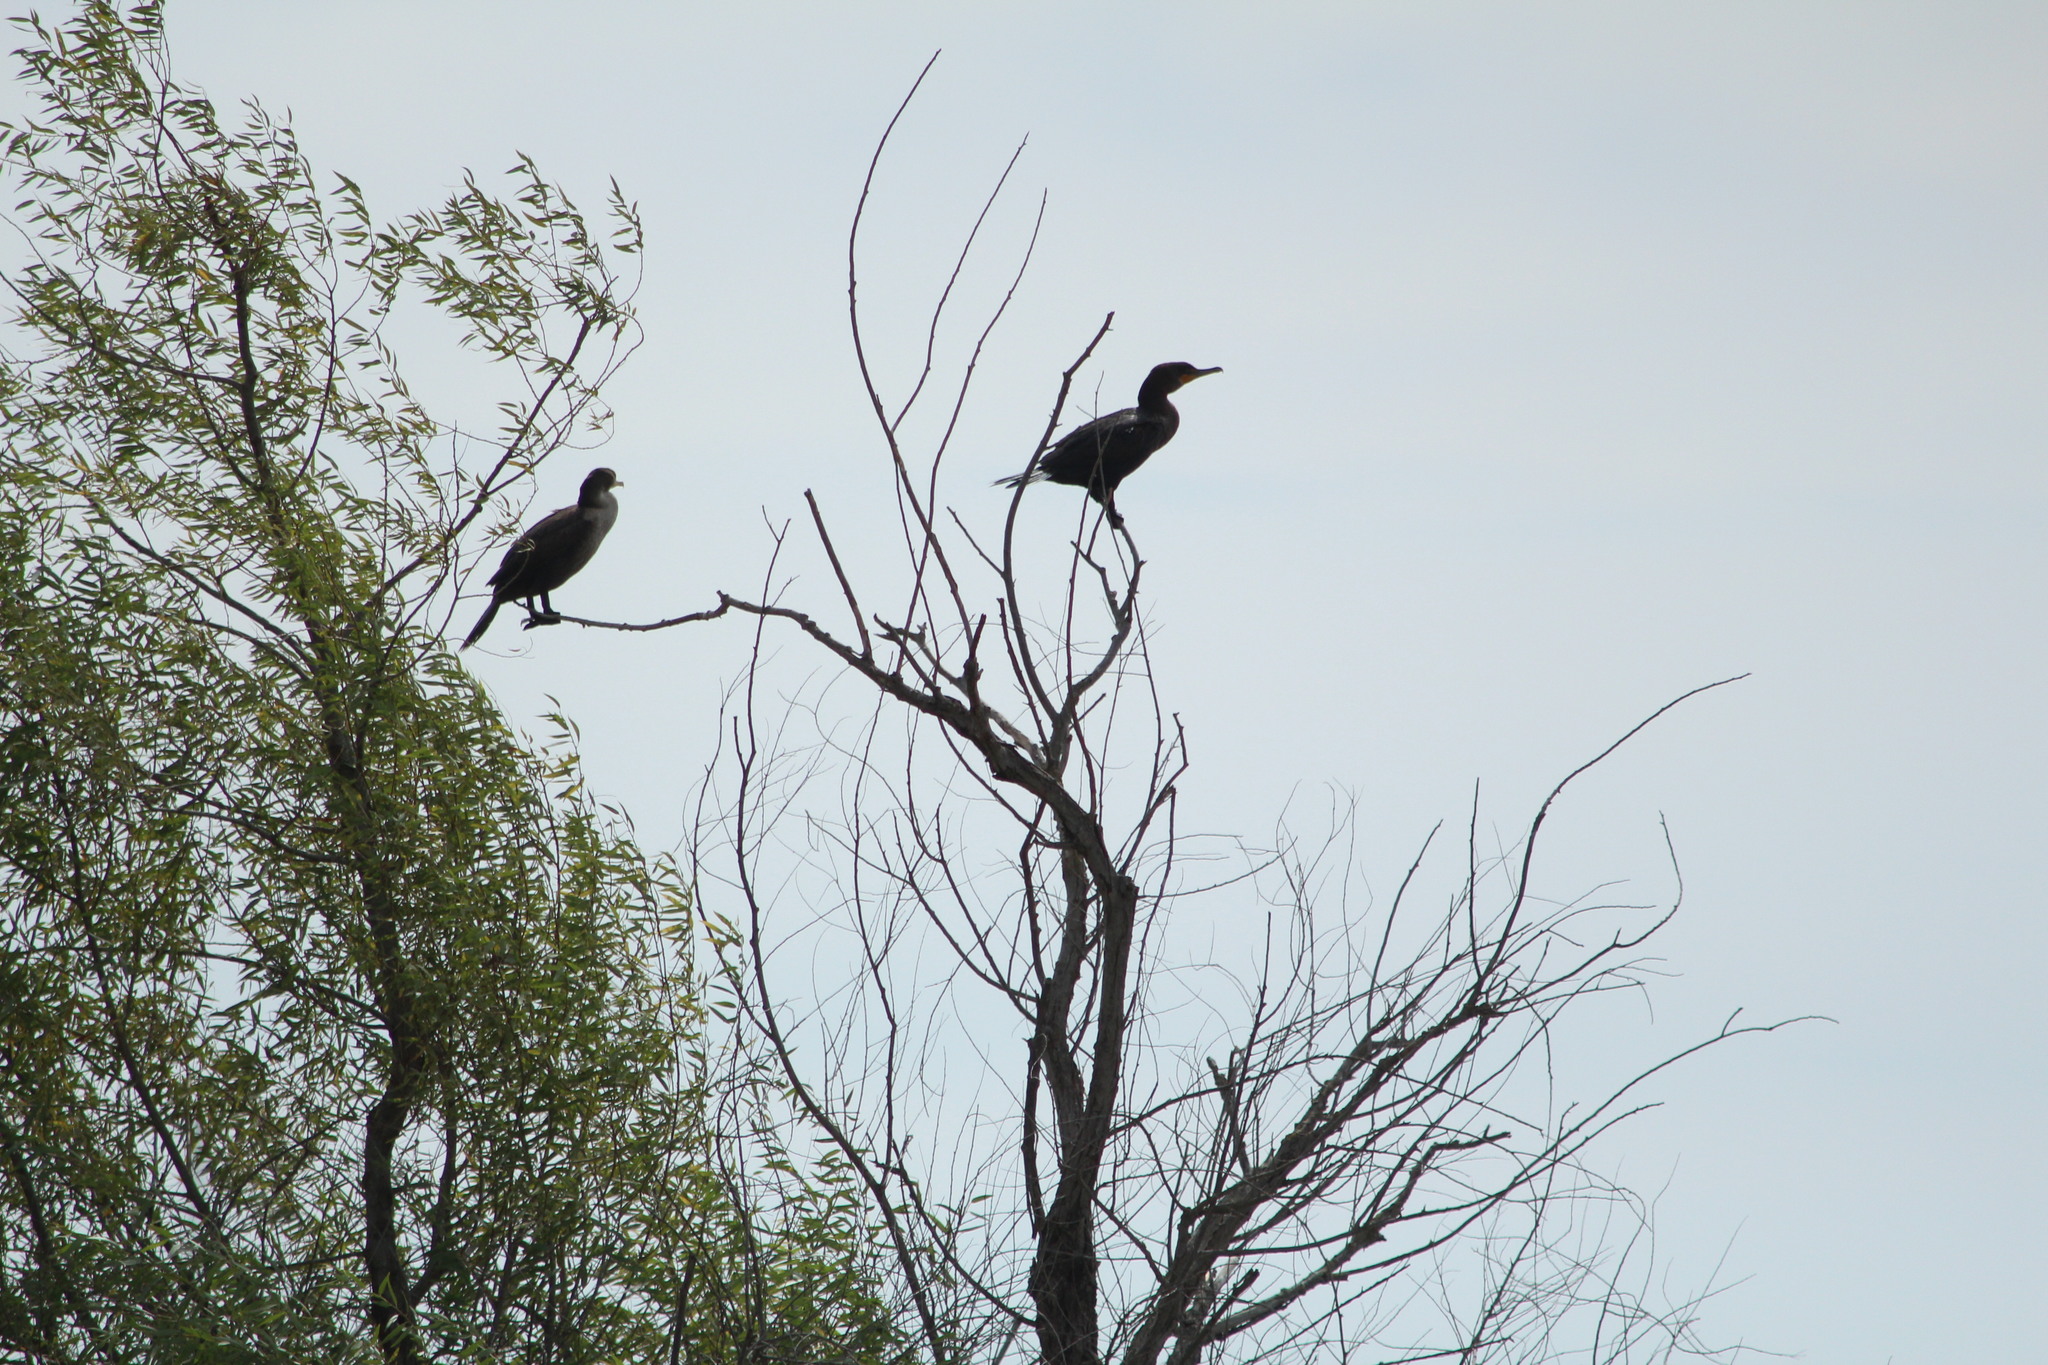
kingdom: Animalia
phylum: Chordata
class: Aves
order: Suliformes
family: Phalacrocoracidae
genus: Phalacrocorax
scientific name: Phalacrocorax auritus
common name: Double-crested cormorant
